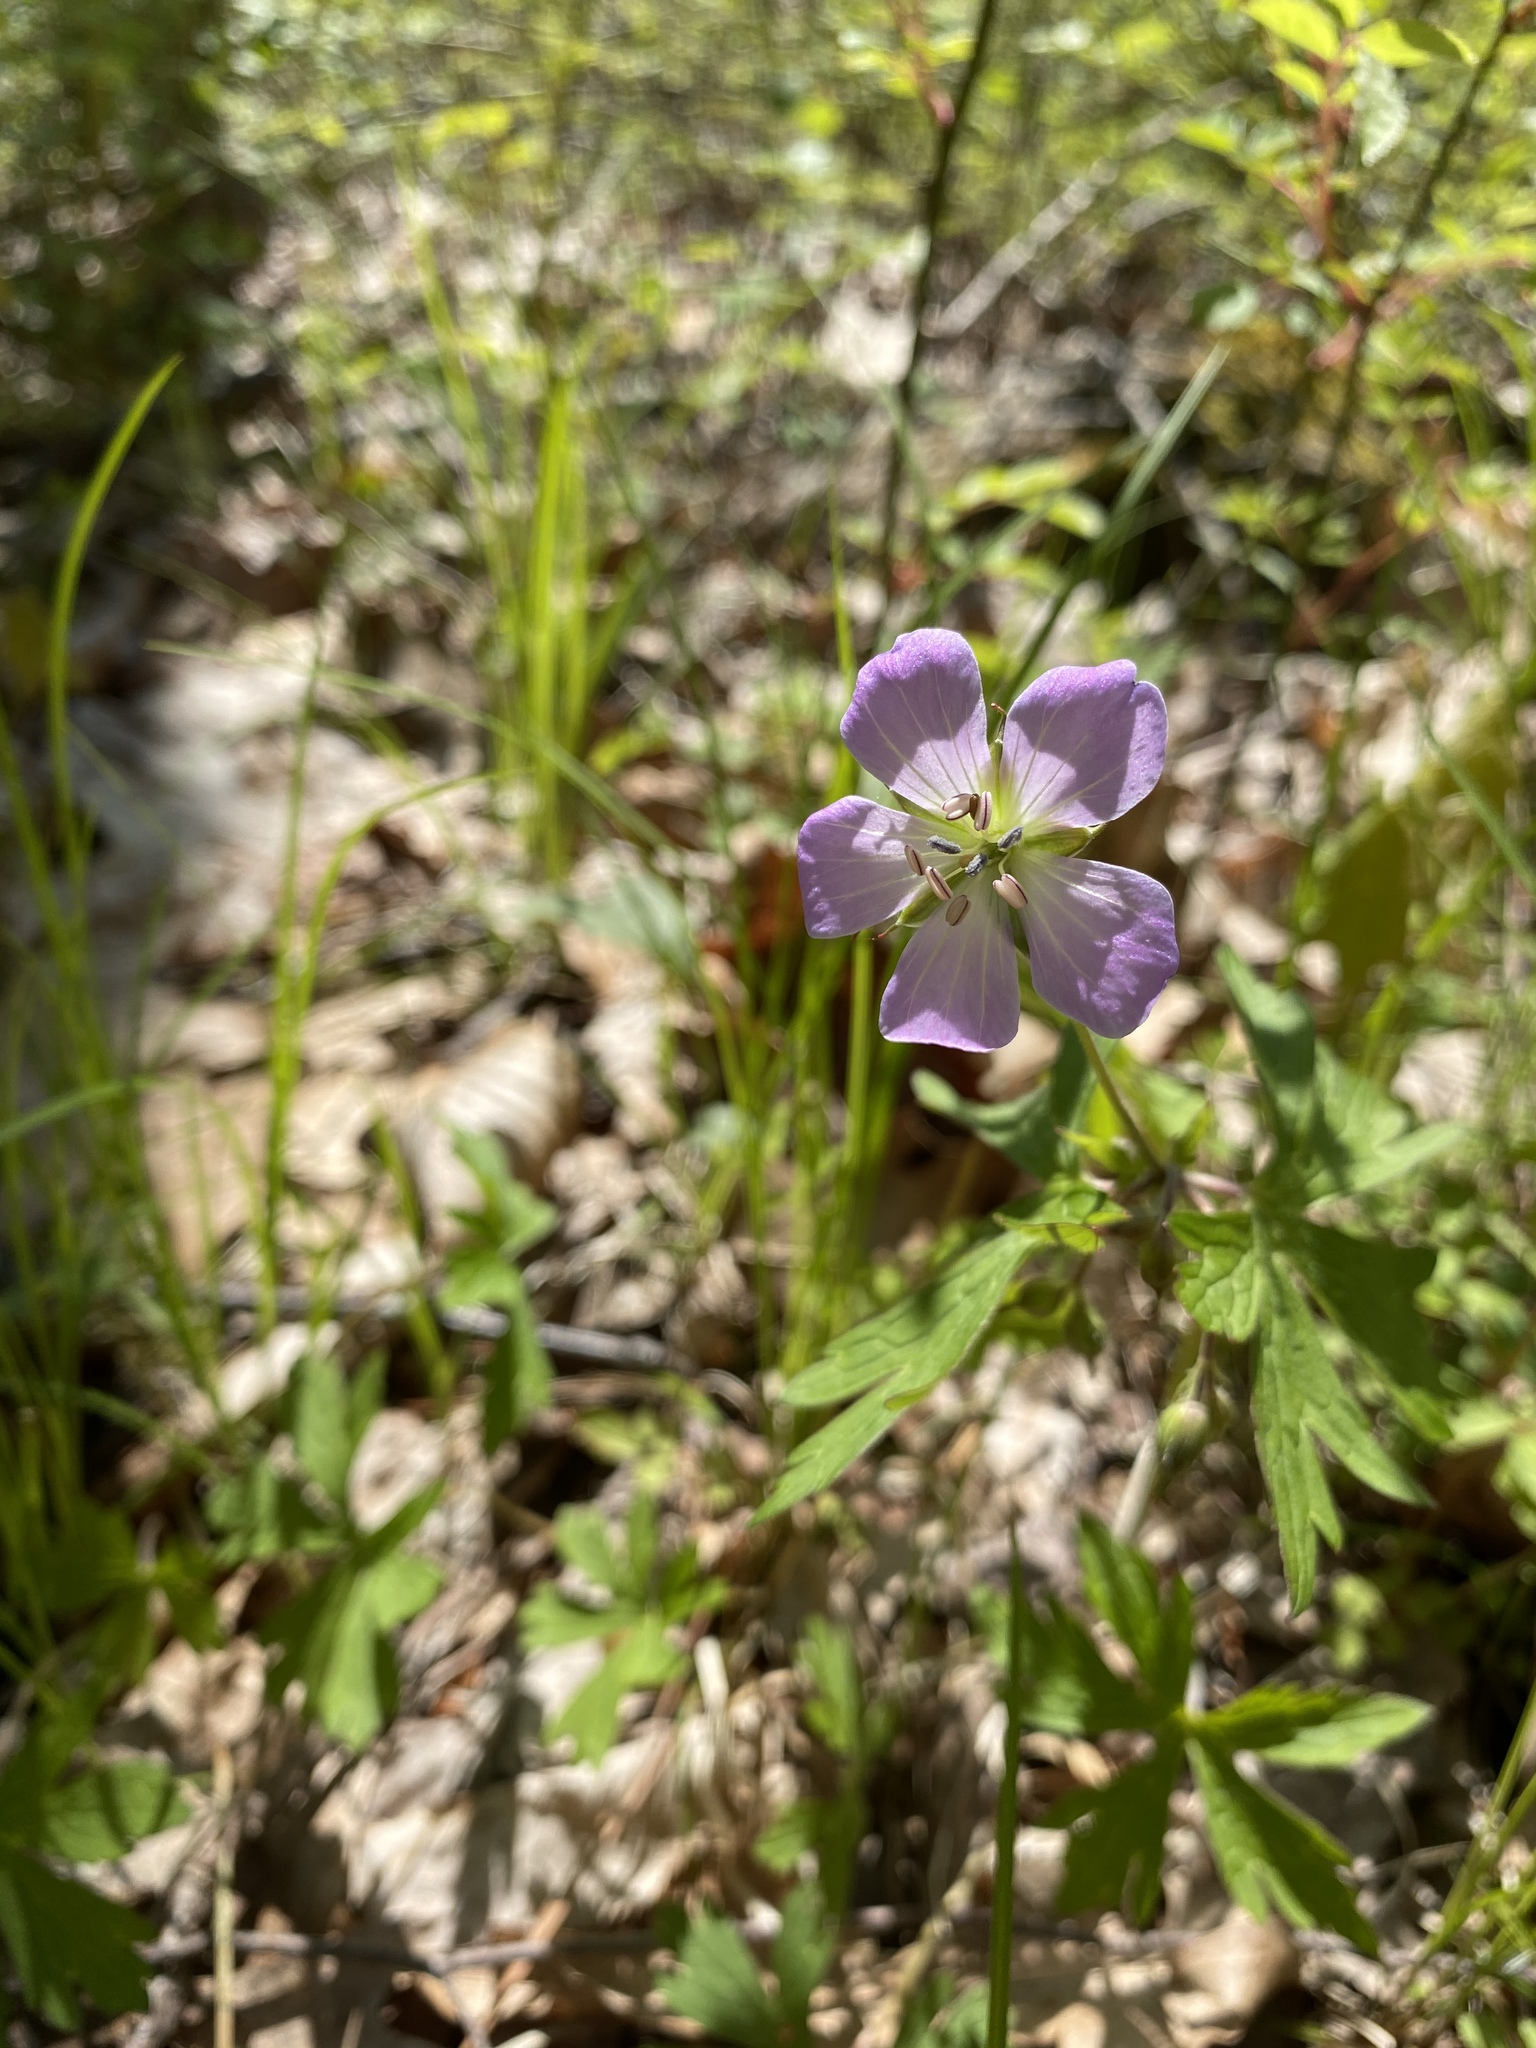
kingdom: Plantae
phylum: Tracheophyta
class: Magnoliopsida
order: Geraniales
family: Geraniaceae
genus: Geranium
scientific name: Geranium maculatum
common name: Spotted geranium
